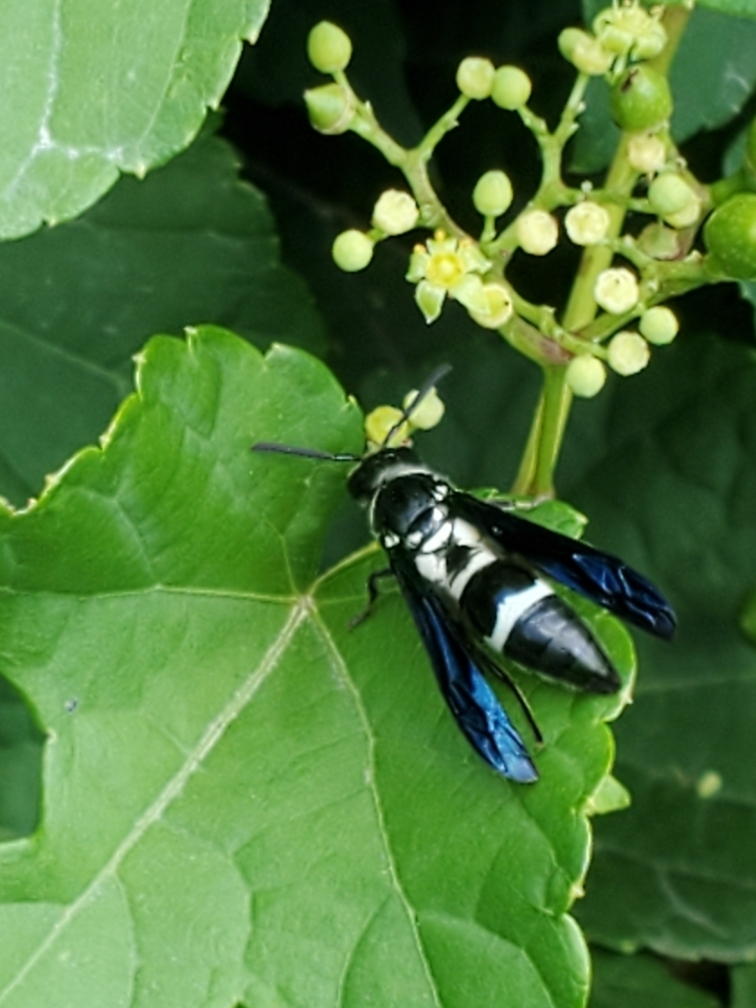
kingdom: Animalia
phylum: Arthropoda
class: Insecta
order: Hymenoptera
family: Eumenidae
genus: Pseudodynerus
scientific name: Pseudodynerus quadrisectus
